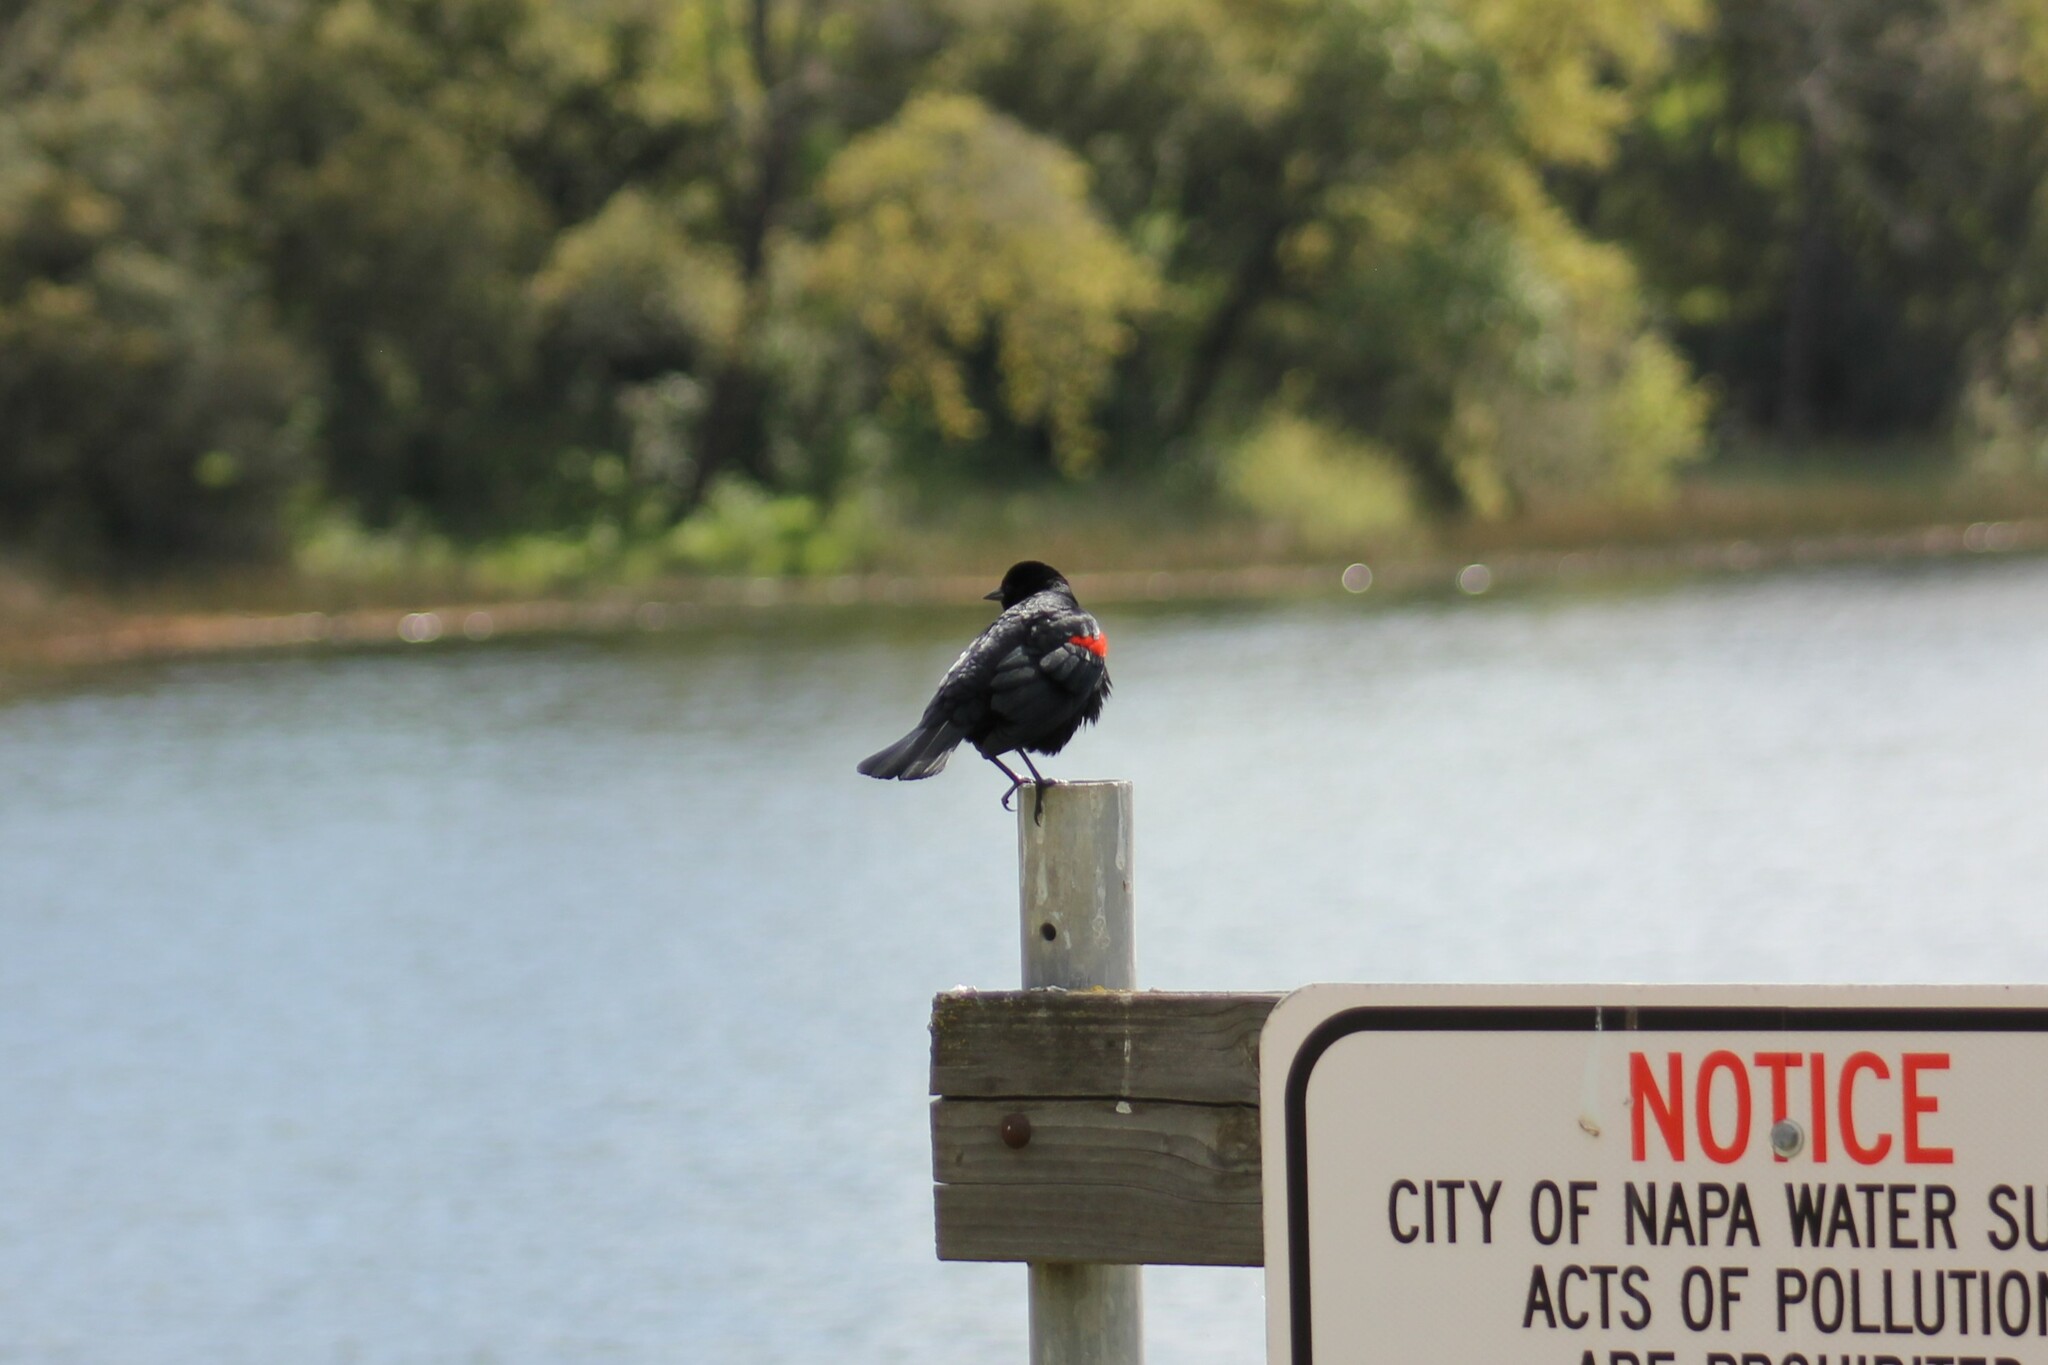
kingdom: Animalia
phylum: Chordata
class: Aves
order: Passeriformes
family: Icteridae
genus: Agelaius
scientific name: Agelaius phoeniceus
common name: Red-winged blackbird
